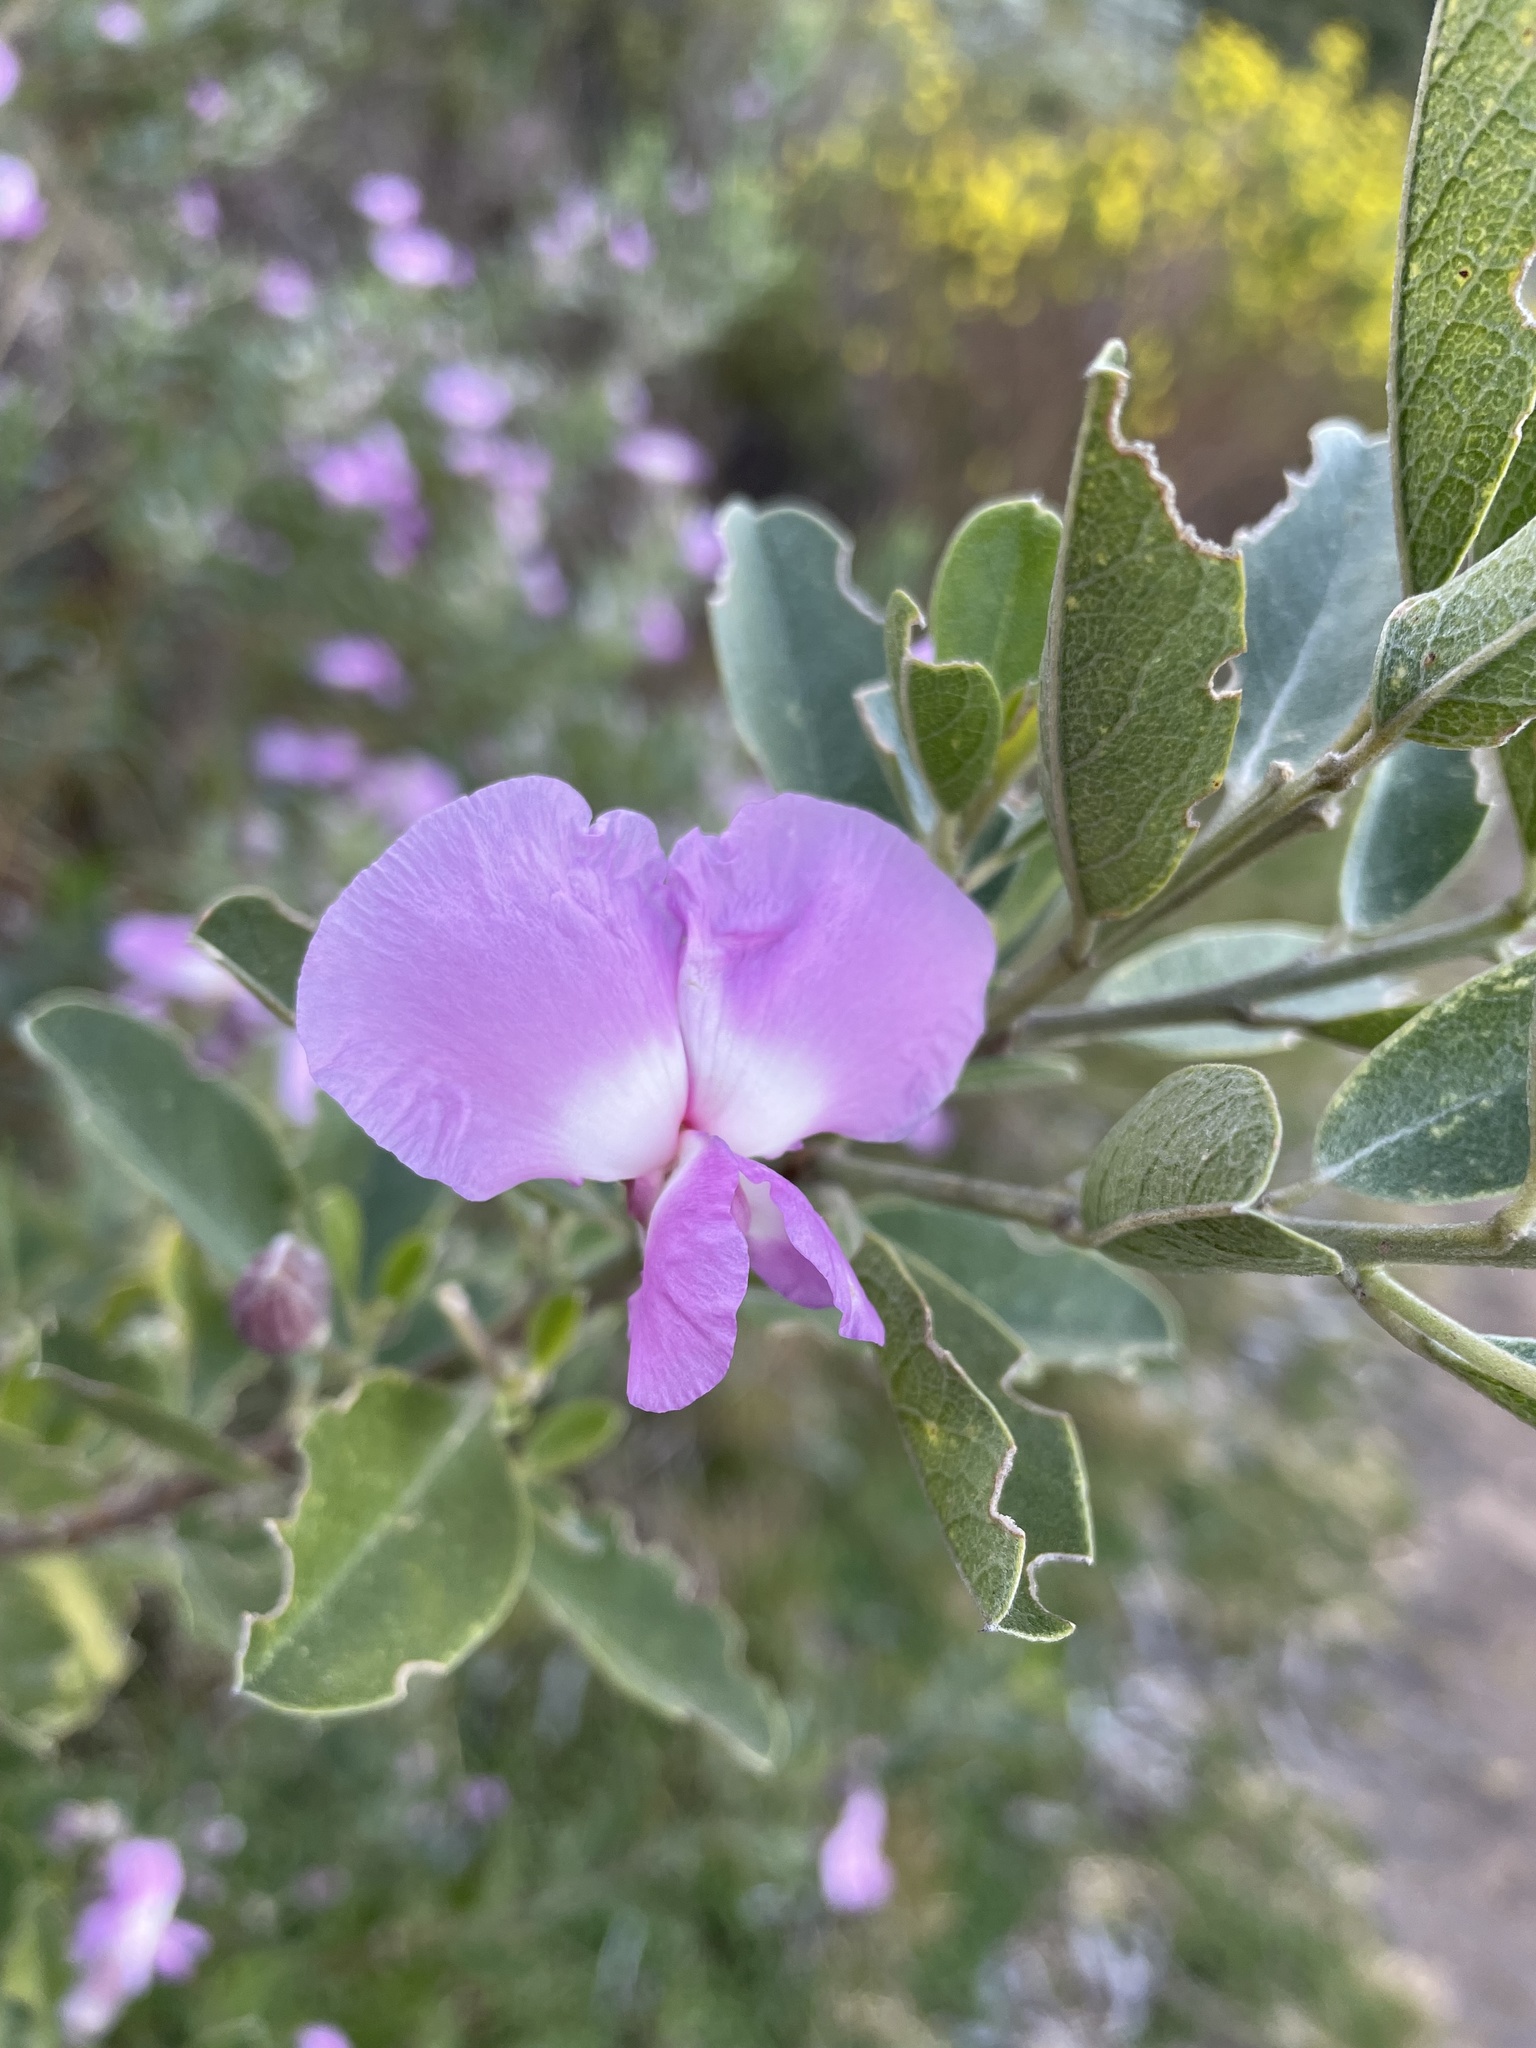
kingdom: Plantae
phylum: Tracheophyta
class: Magnoliopsida
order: Fabales
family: Fabaceae
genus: Podalyria
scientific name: Podalyria calyptrata
